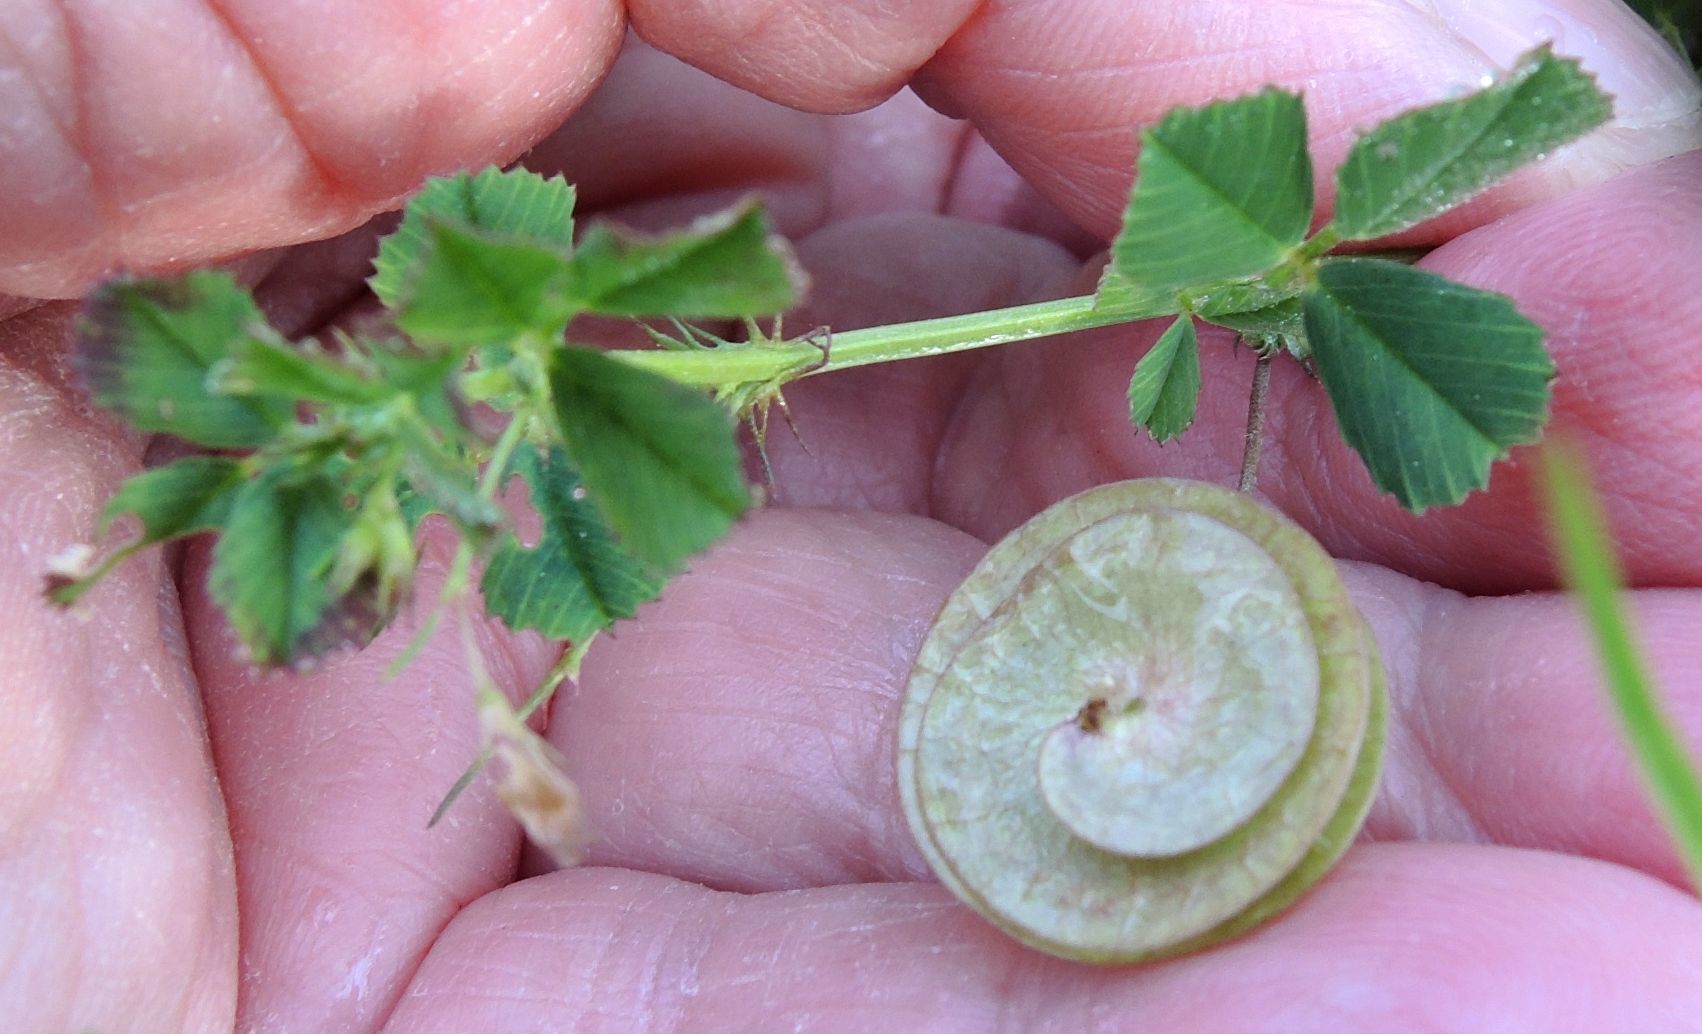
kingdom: Plantae
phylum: Tracheophyta
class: Magnoliopsida
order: Fabales
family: Fabaceae
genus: Medicago
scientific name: Medicago orbicularis
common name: Button medick
